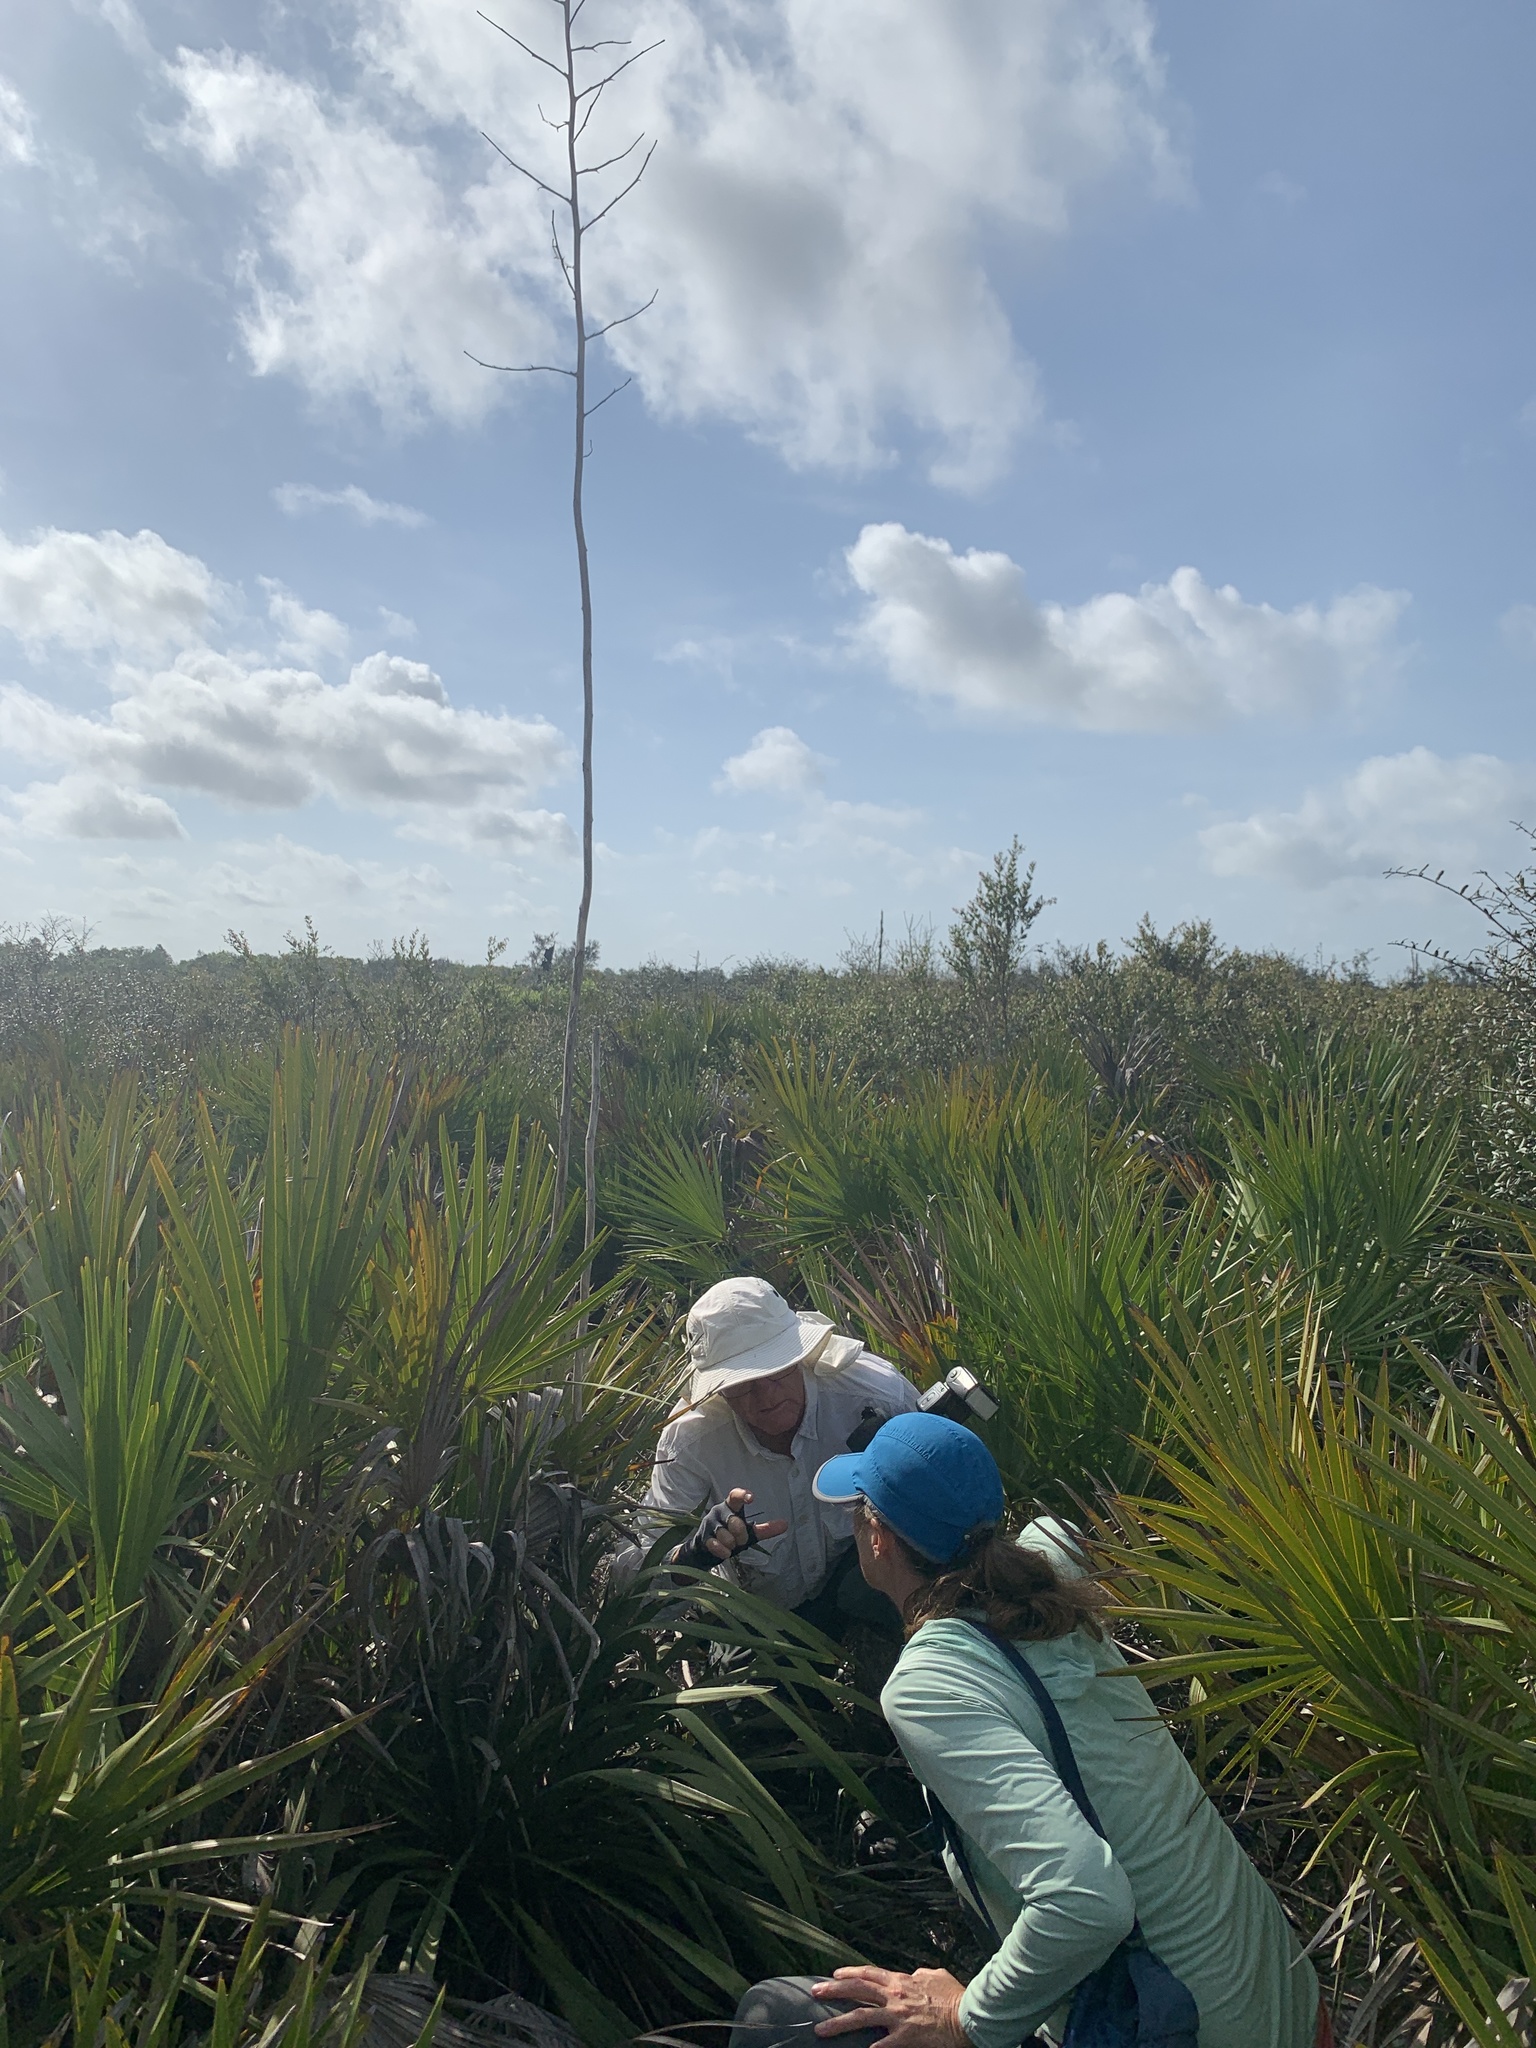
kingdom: Plantae
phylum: Tracheophyta
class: Liliopsida
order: Asparagales
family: Asparagaceae
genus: Yucca
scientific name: Yucca filamentosa
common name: Adam's-needle
